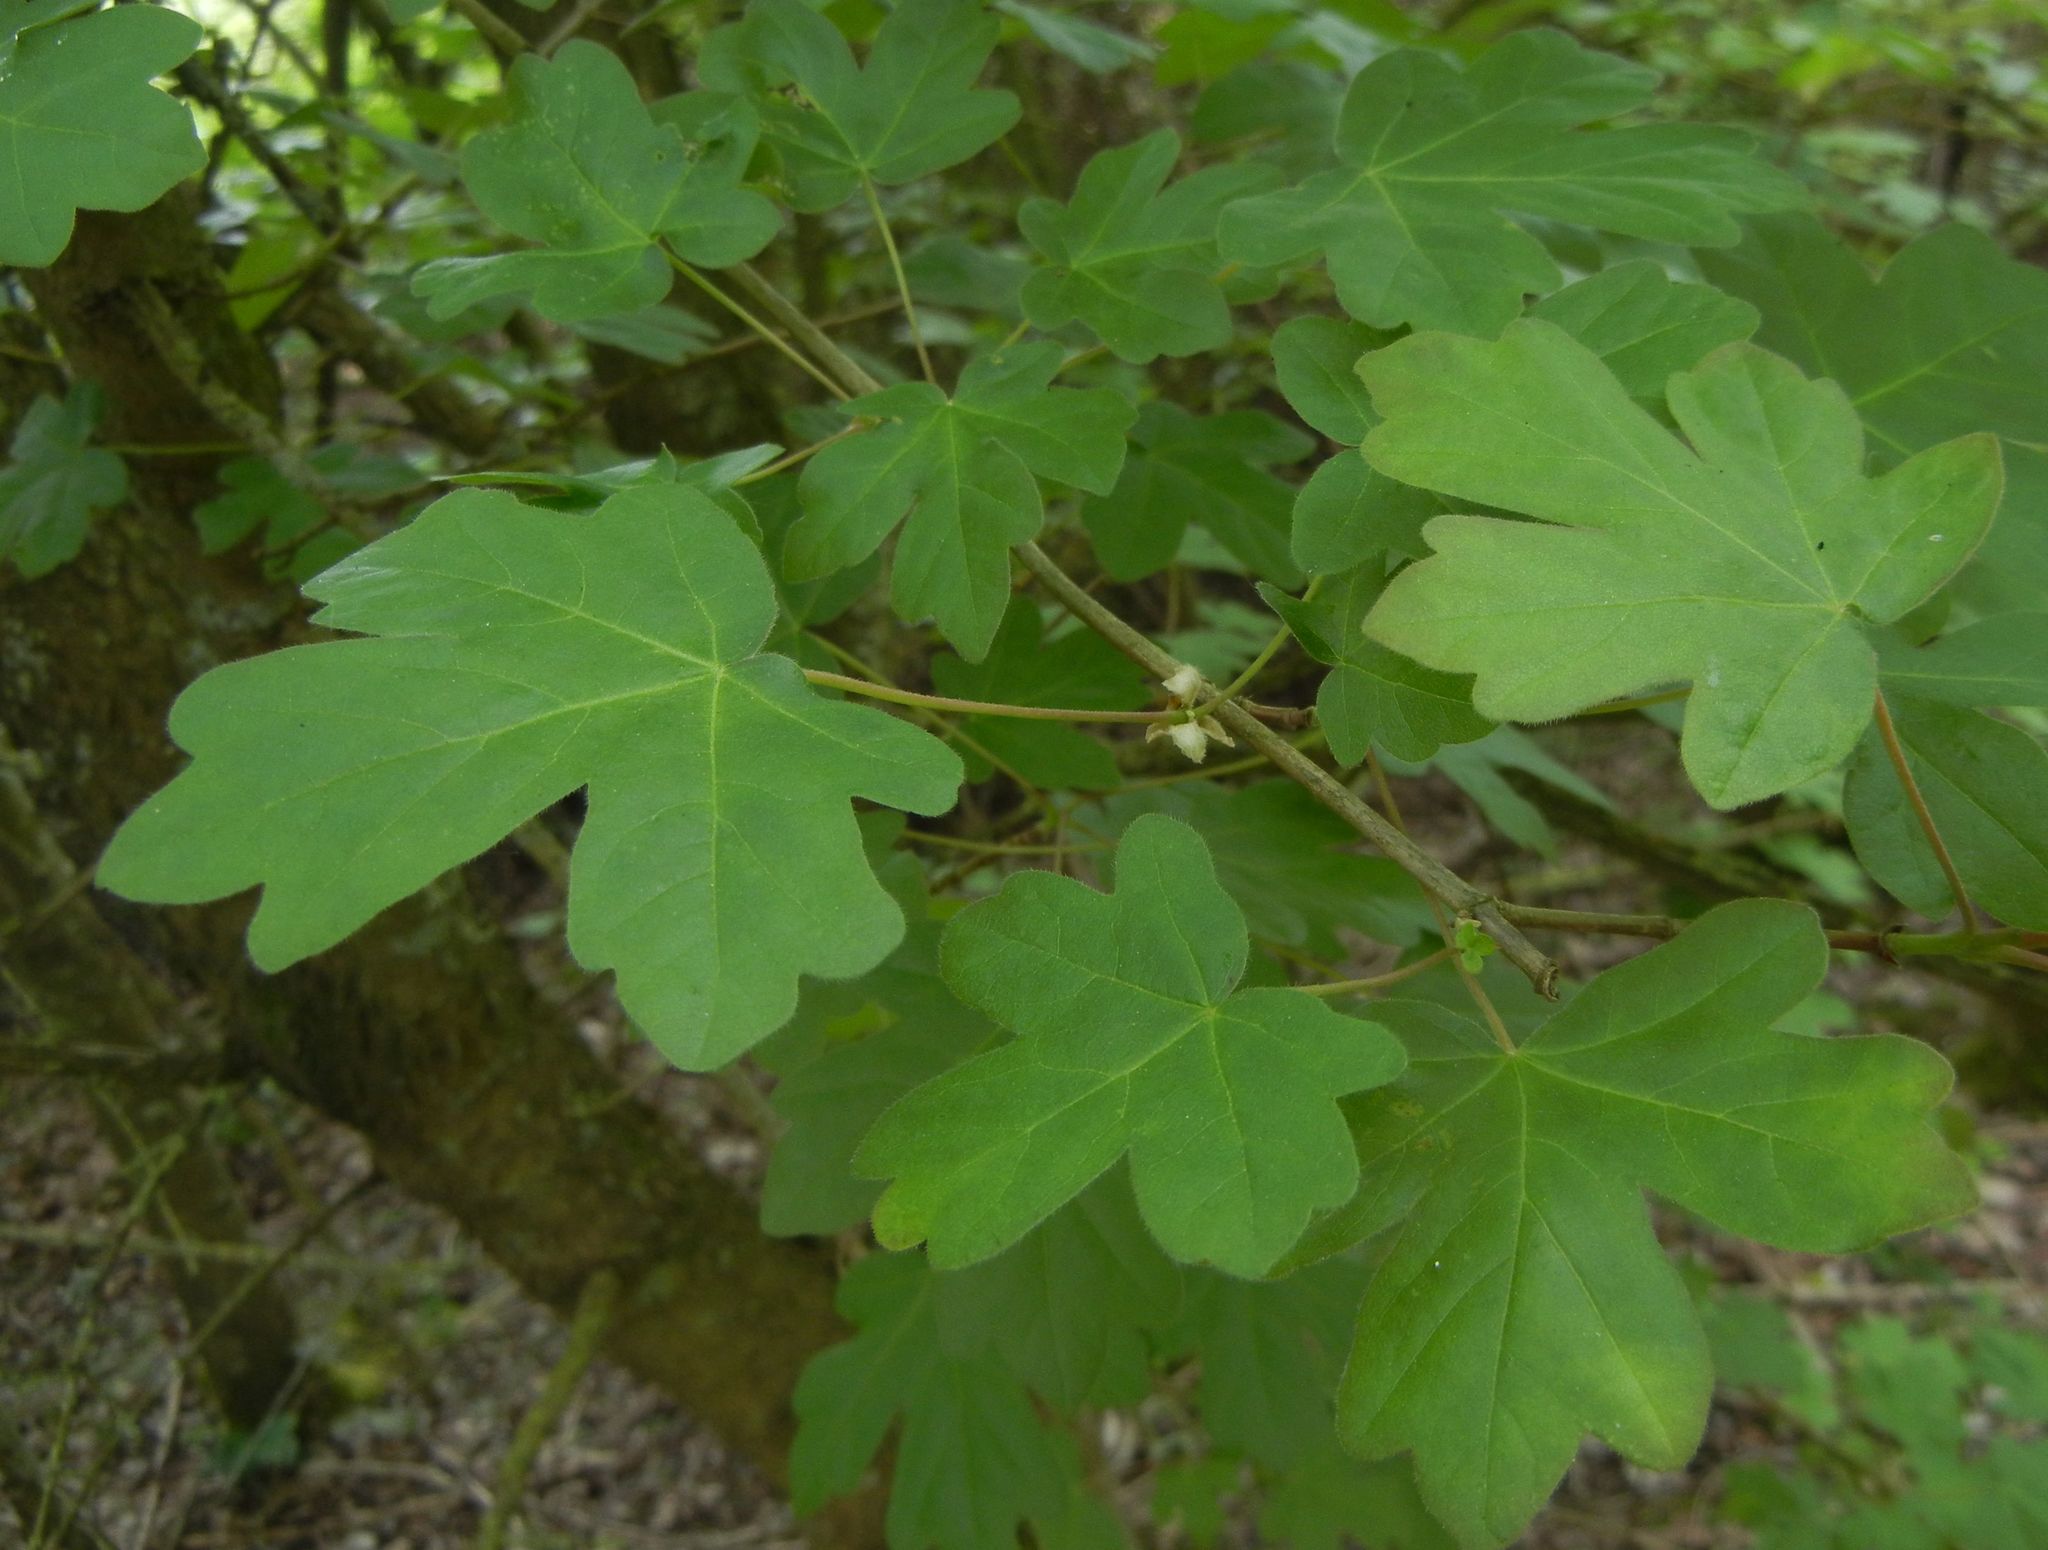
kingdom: Plantae
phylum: Tracheophyta
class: Magnoliopsida
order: Sapindales
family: Sapindaceae
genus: Acer
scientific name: Acer campestre
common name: Field maple
